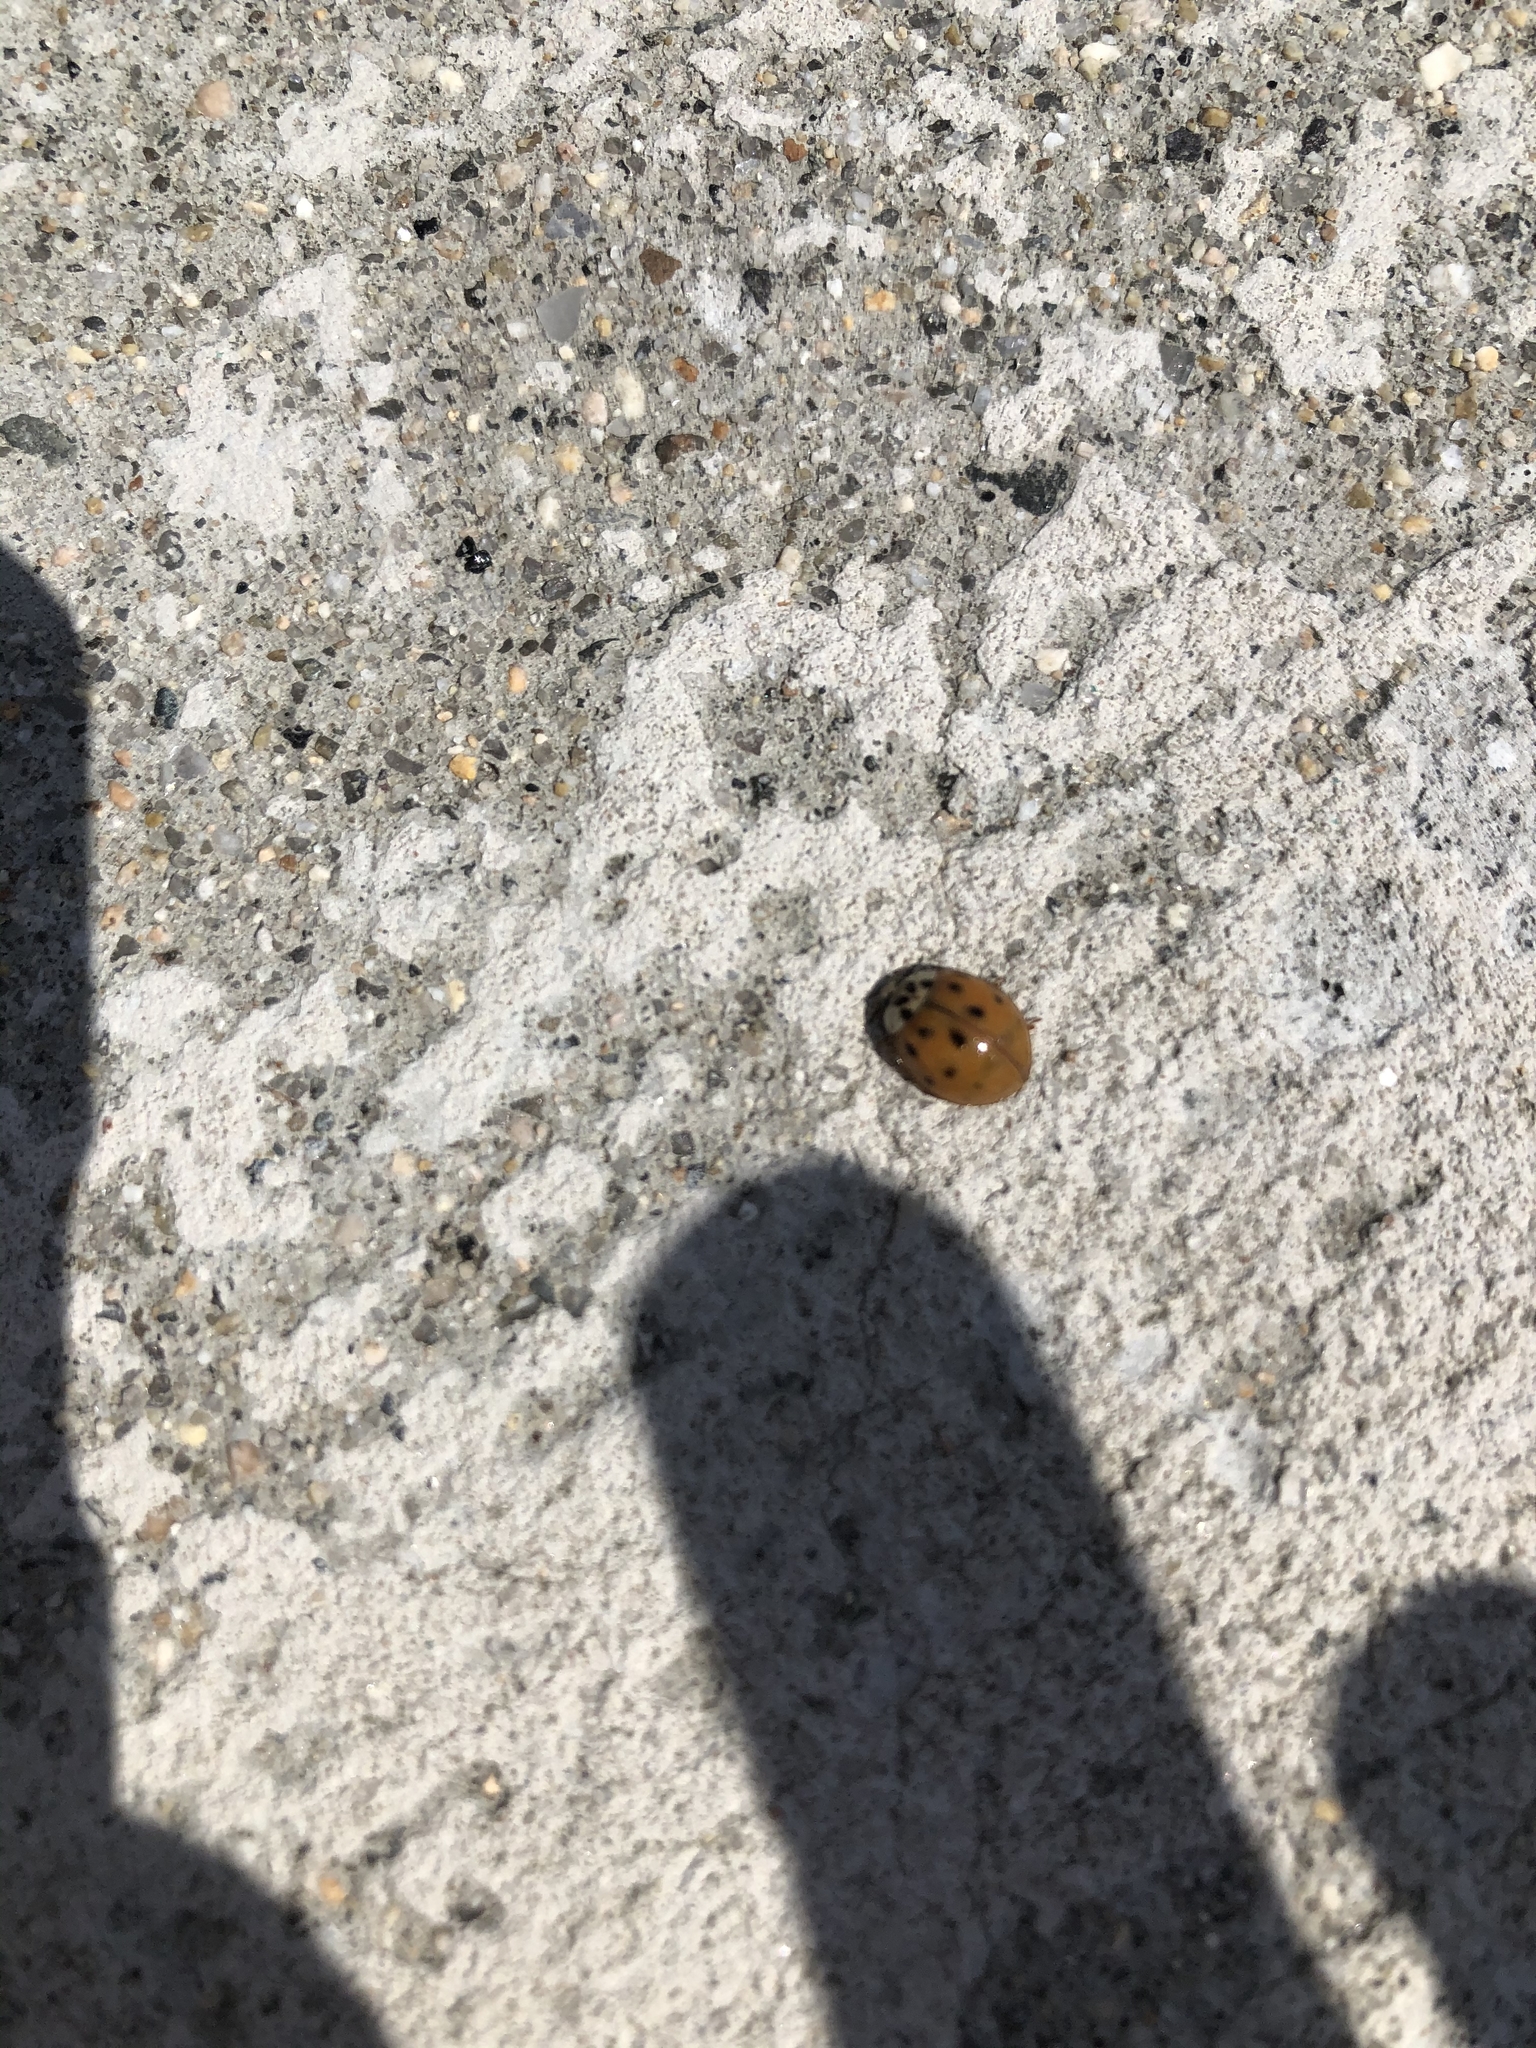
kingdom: Animalia
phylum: Arthropoda
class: Insecta
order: Coleoptera
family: Coccinellidae
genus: Harmonia
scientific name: Harmonia axyridis
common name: Harlequin ladybird
